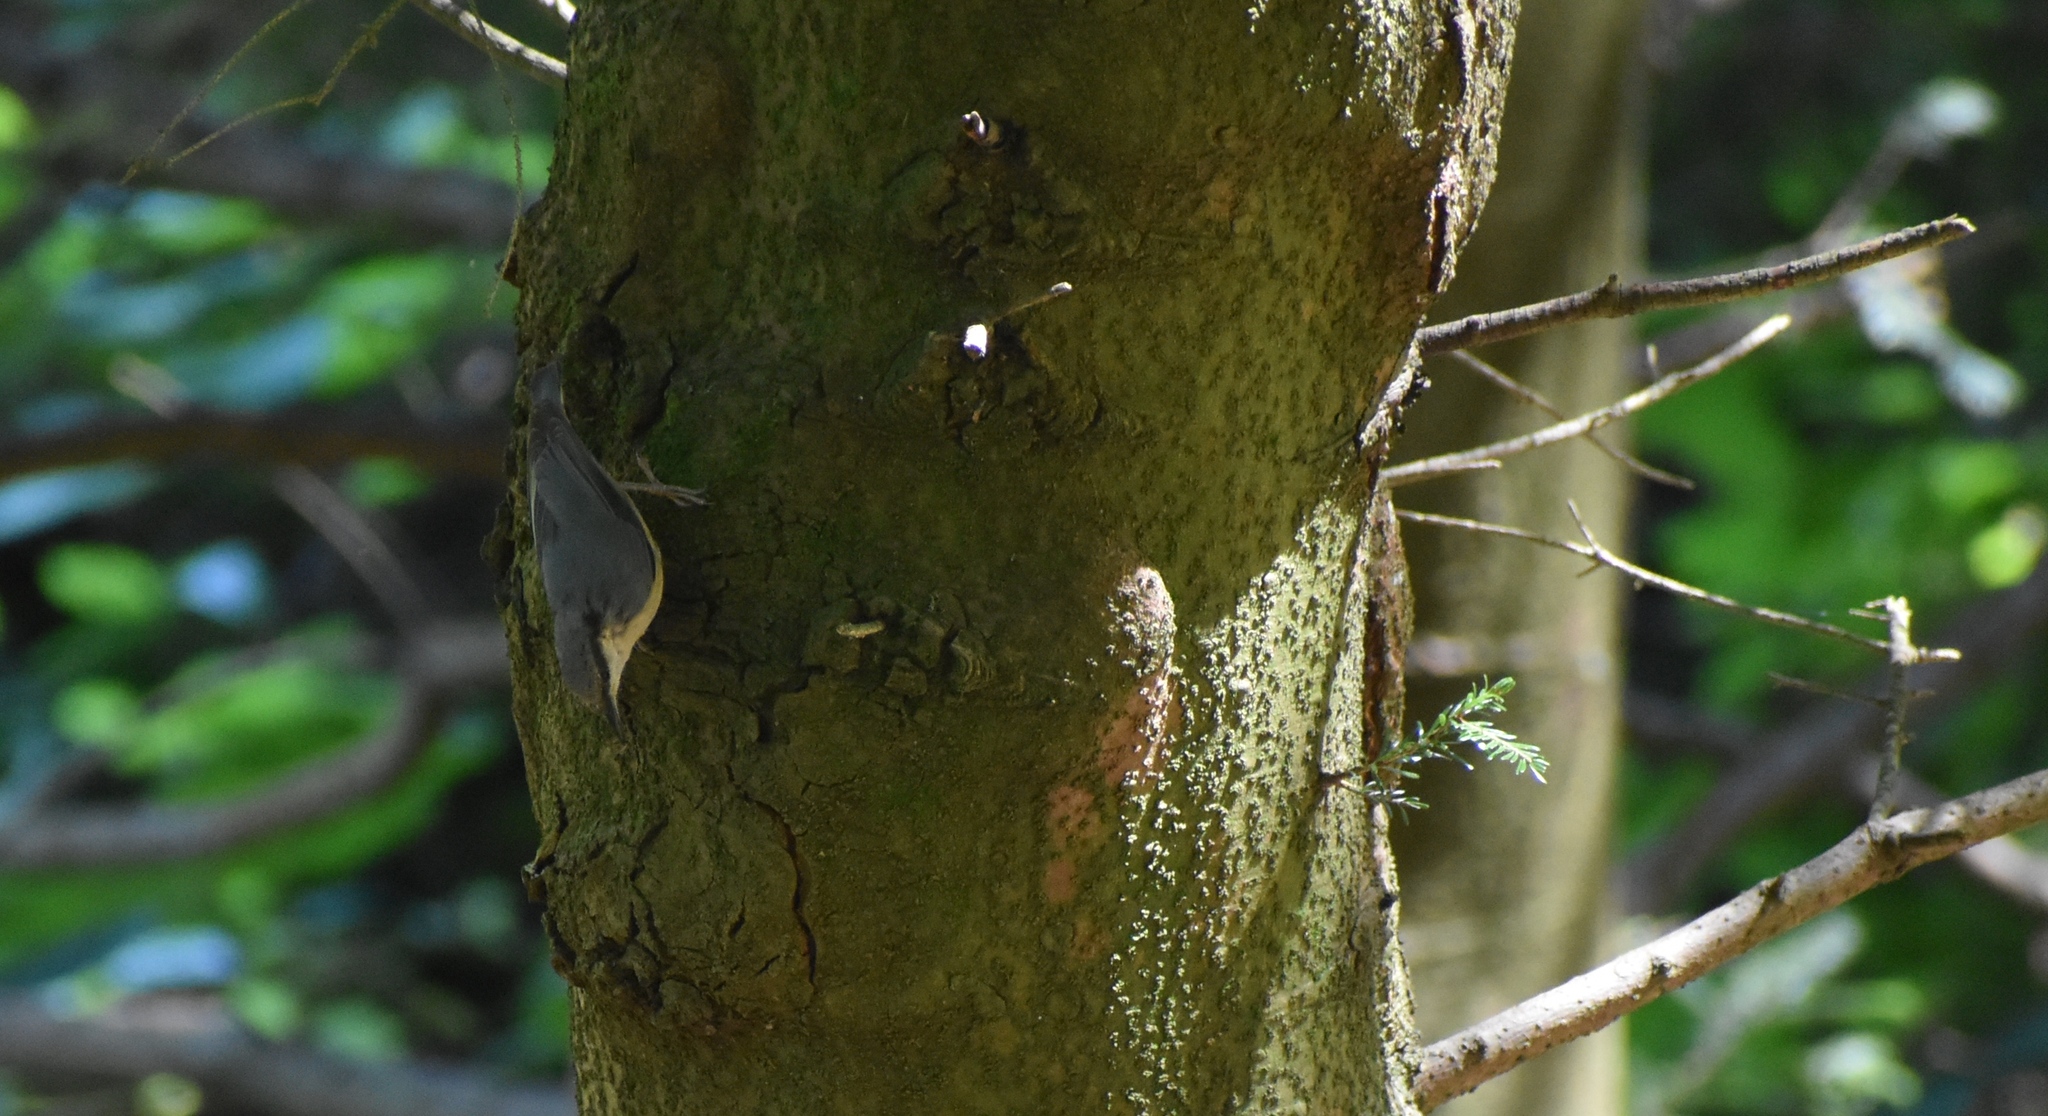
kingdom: Animalia
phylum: Chordata
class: Aves
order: Passeriformes
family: Sittidae
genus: Sitta
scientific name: Sitta europaea
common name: Eurasian nuthatch
